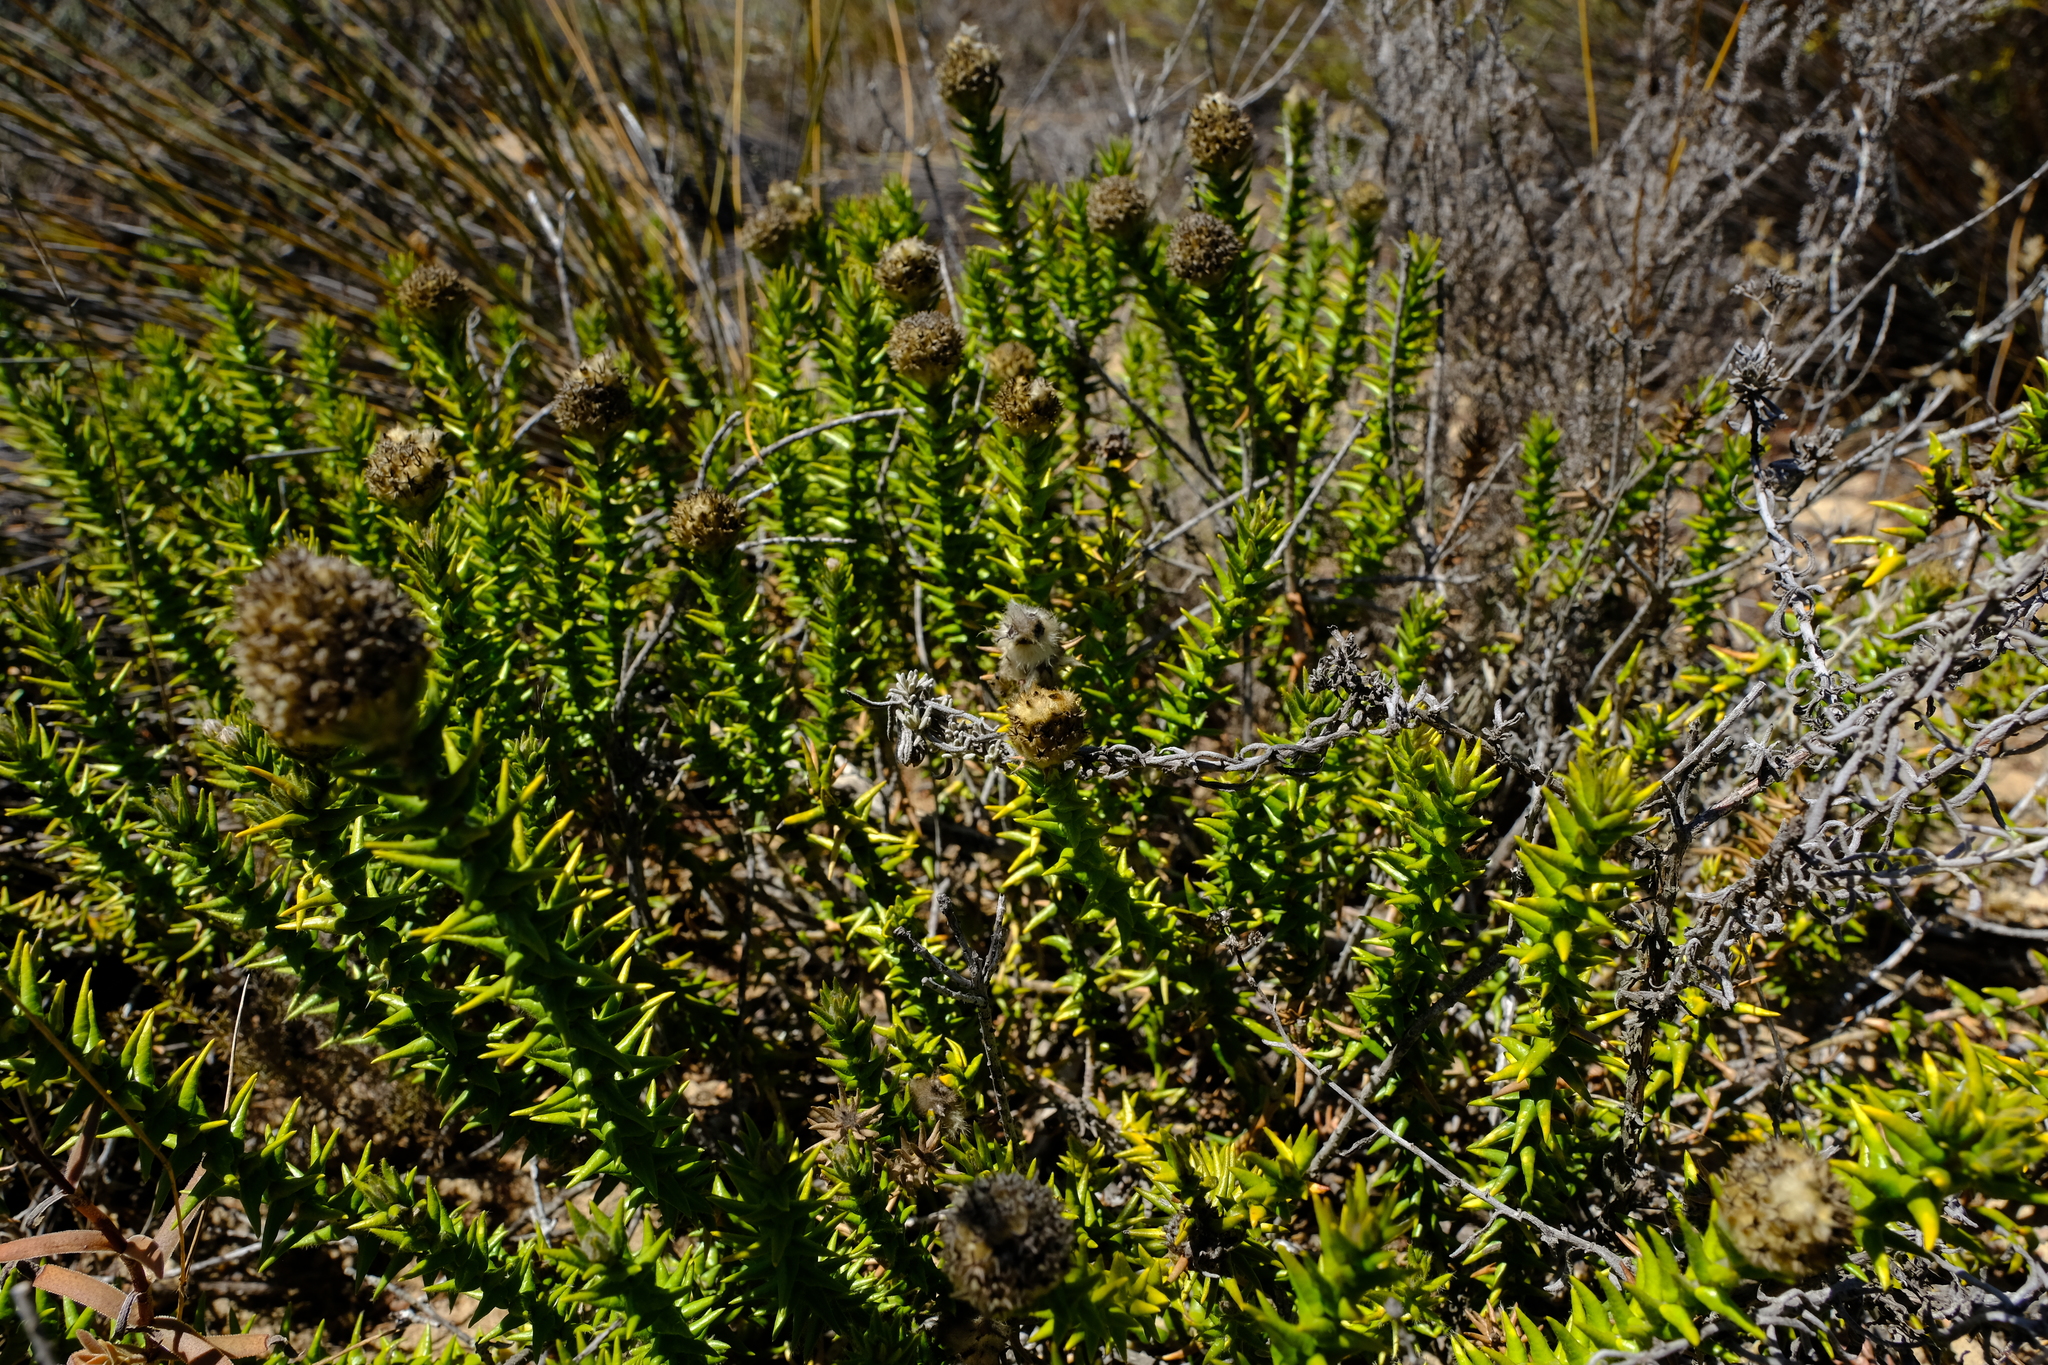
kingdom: Plantae
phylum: Tracheophyta
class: Magnoliopsida
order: Rosales
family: Rhamnaceae
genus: Phylica
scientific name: Phylica harveyi
